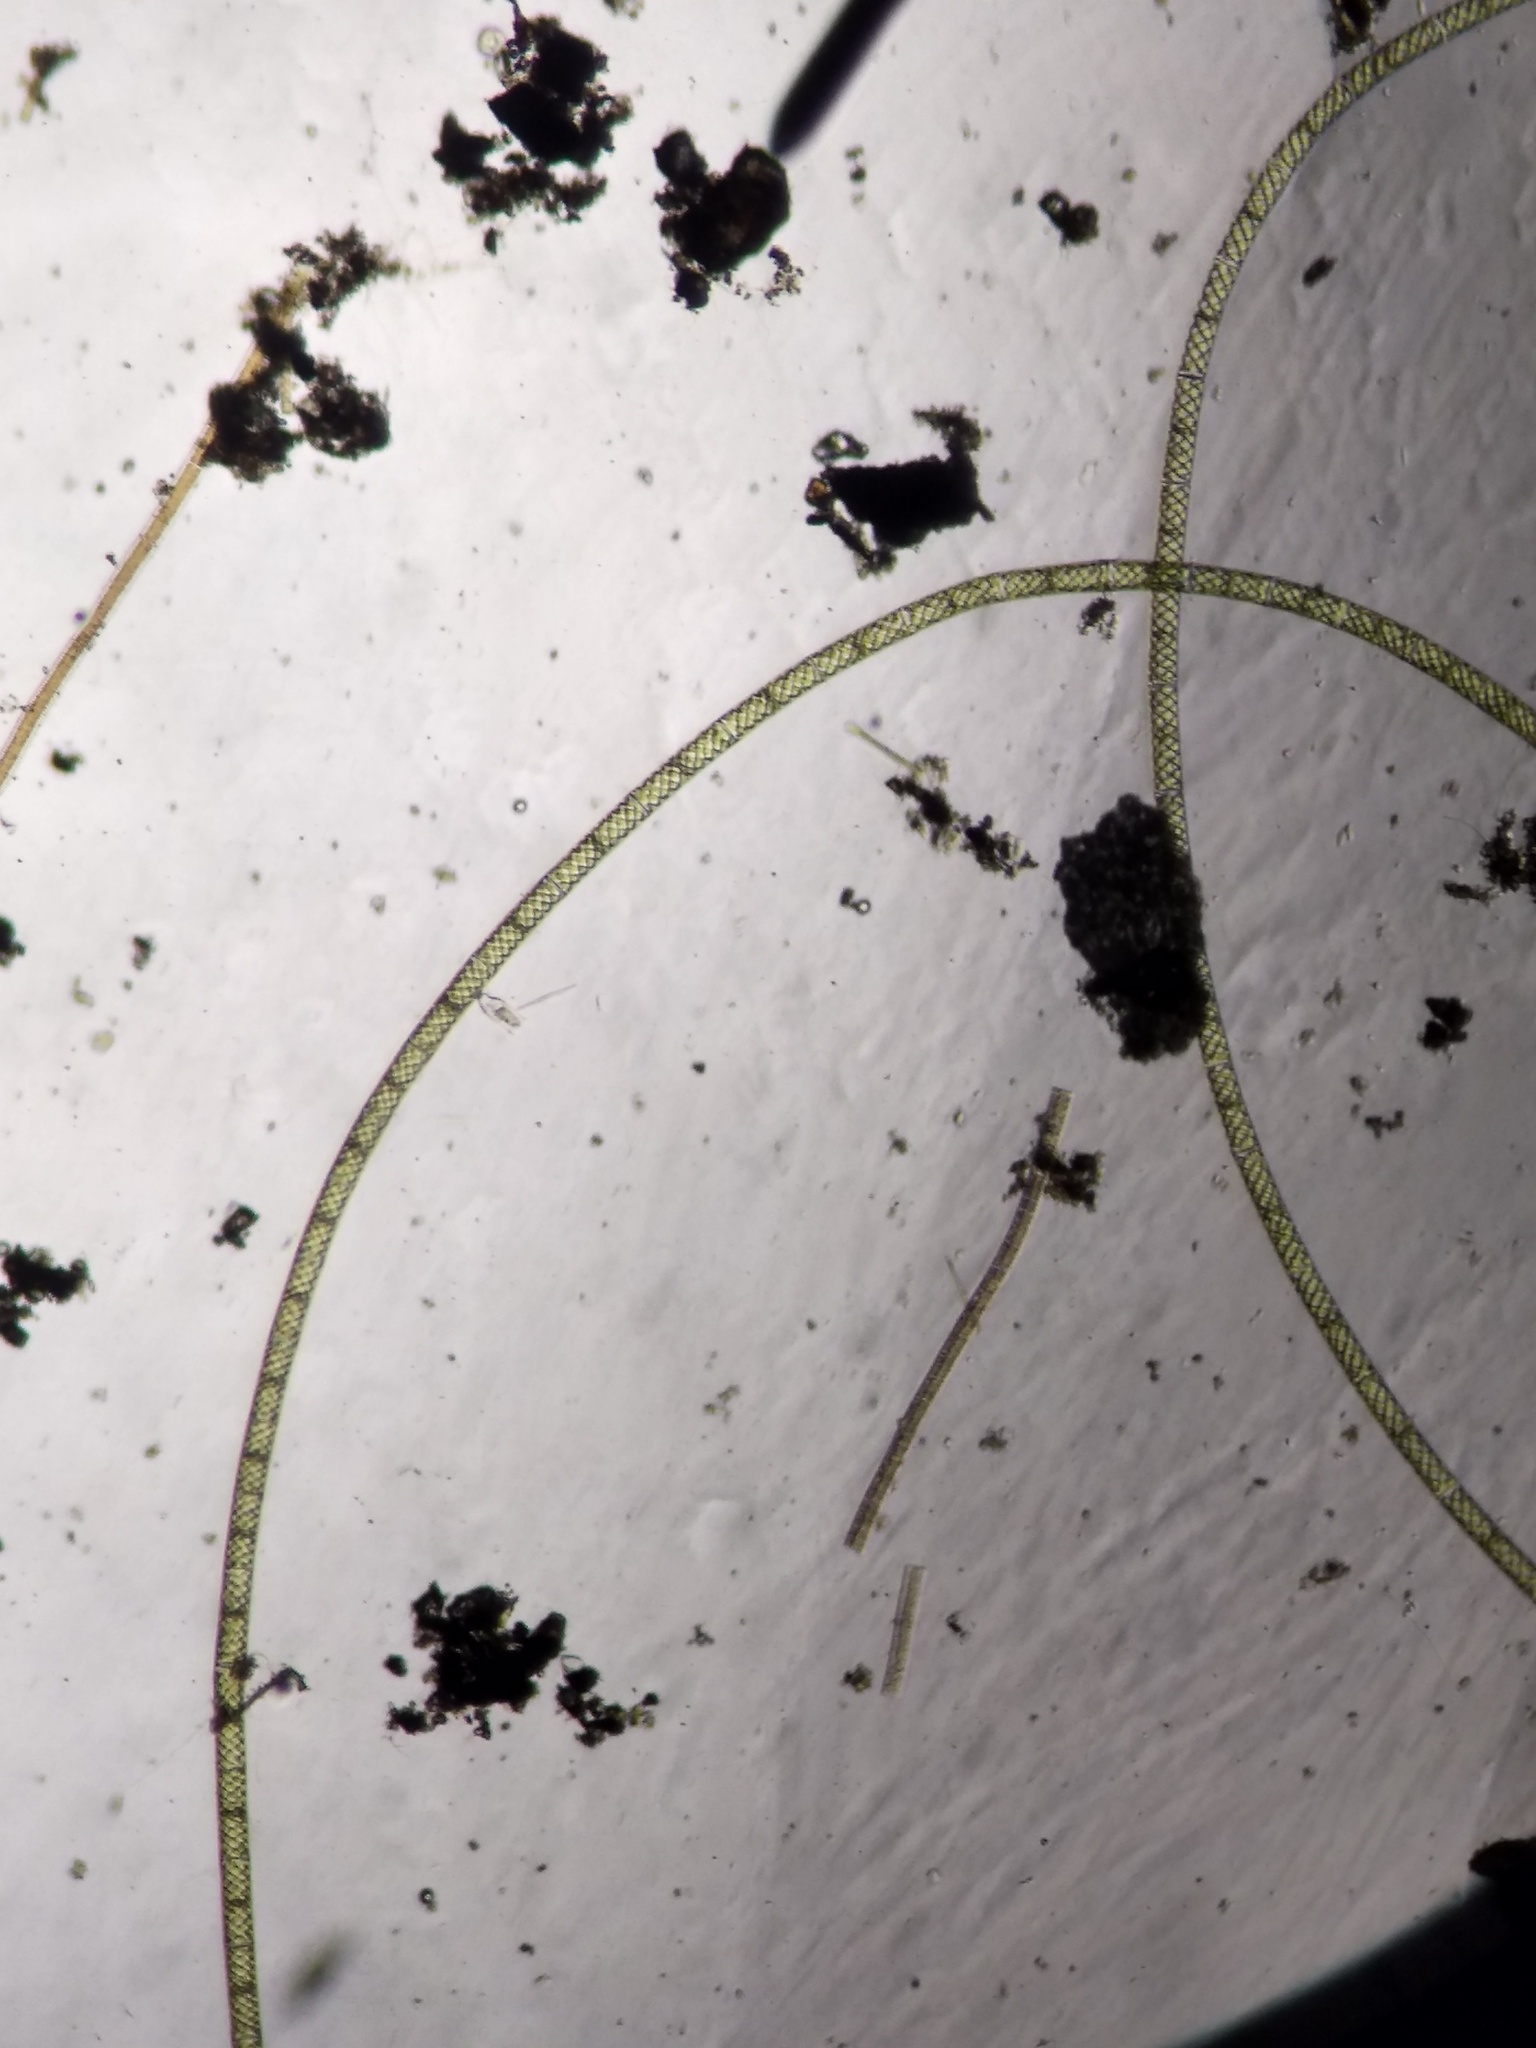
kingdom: Plantae
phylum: Charophyta
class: Zygnematophyceae
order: Zygnematales
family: Zygnemataceae
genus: Spirogyra
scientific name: Spirogyra
